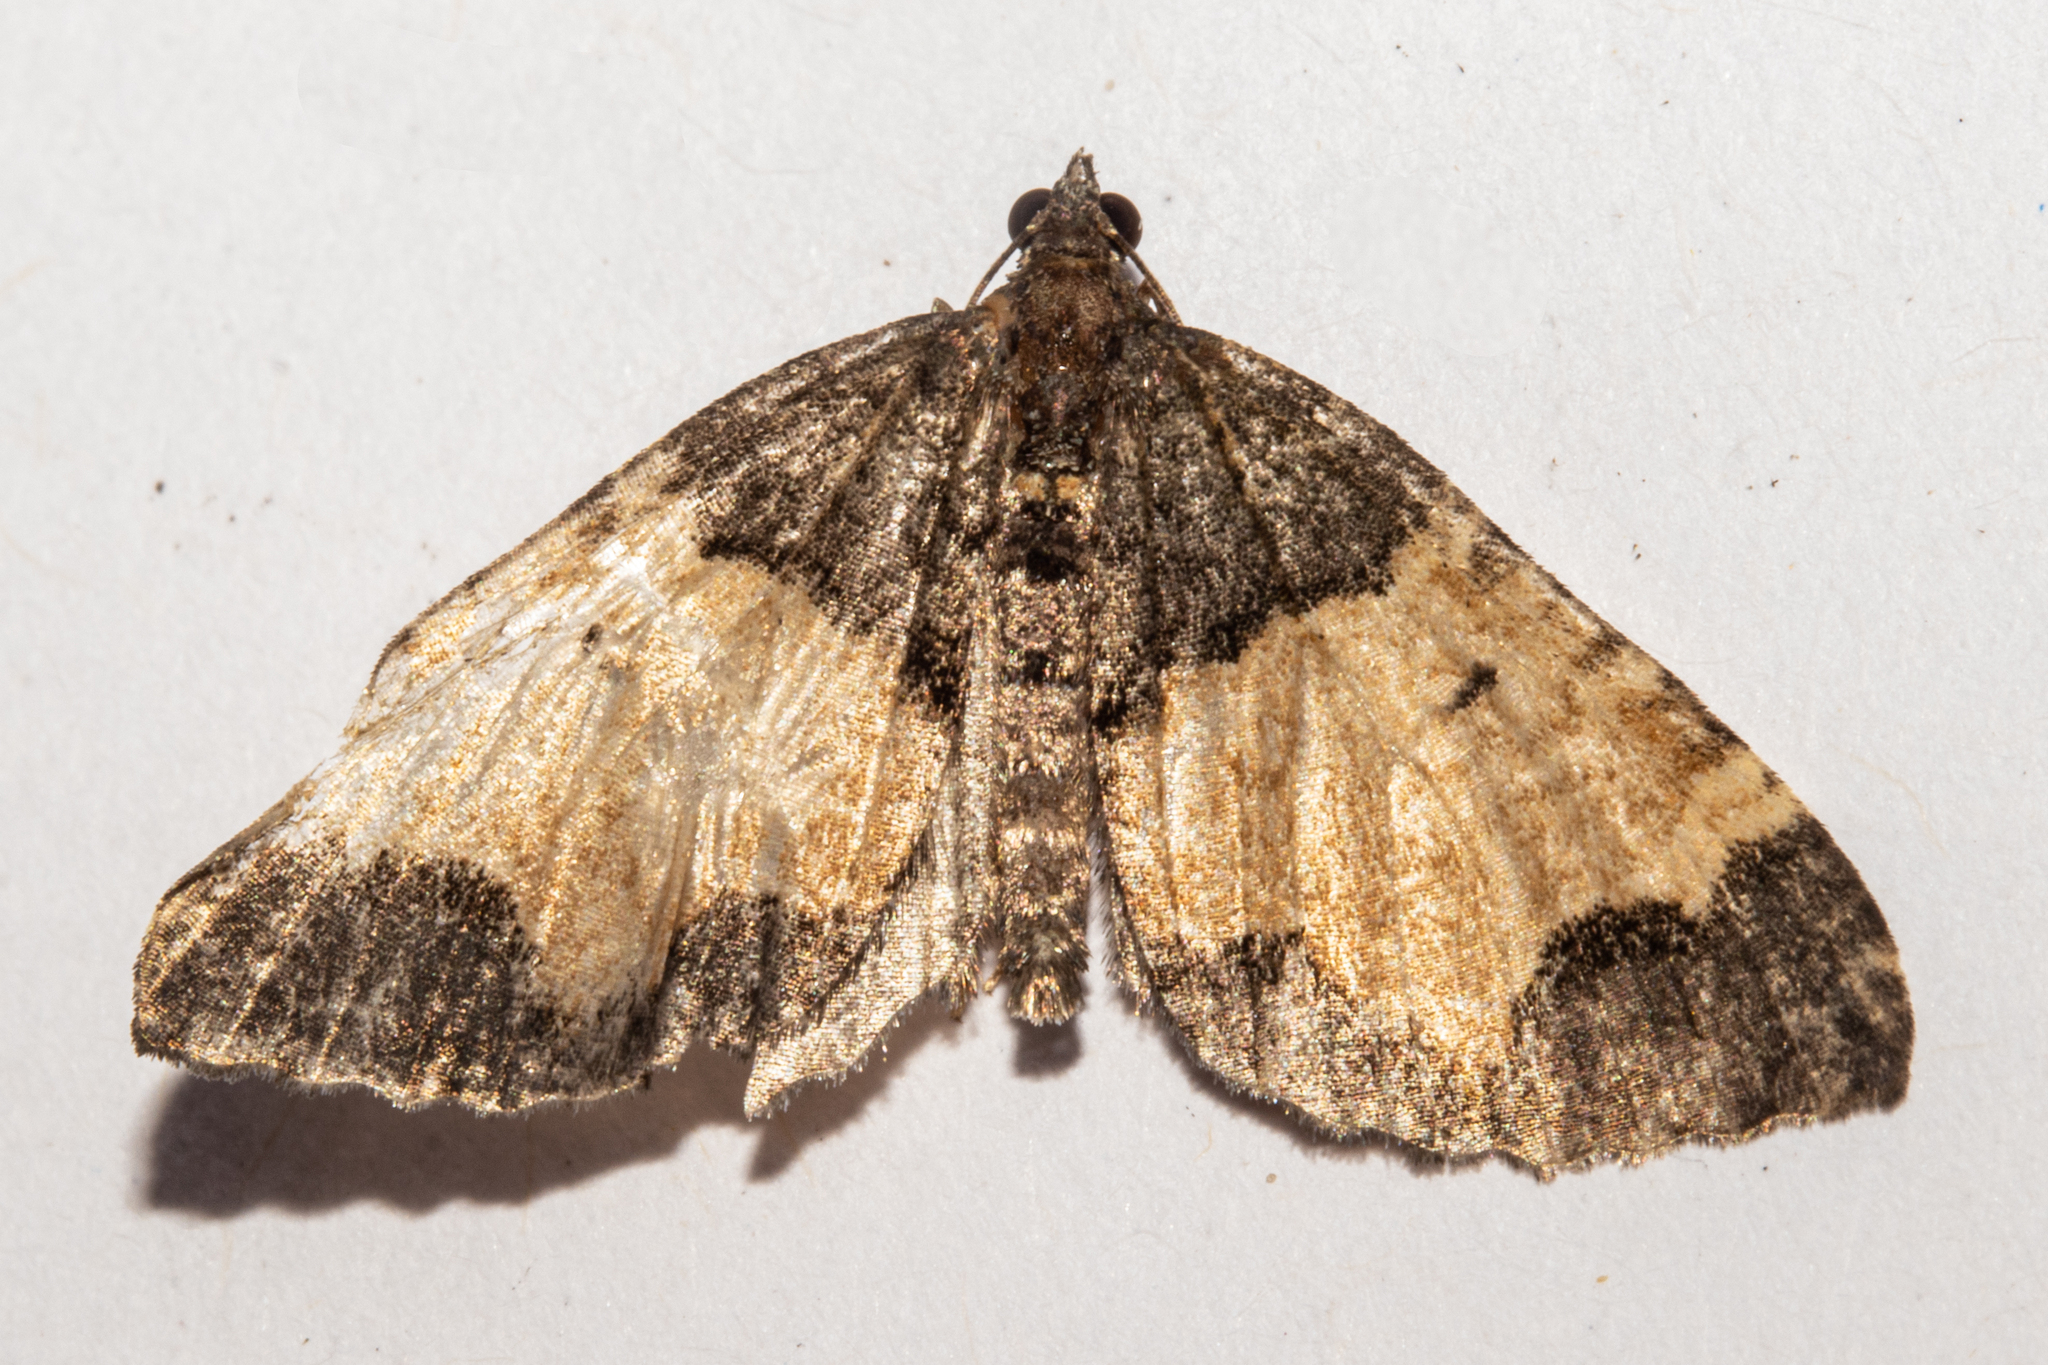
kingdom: Animalia
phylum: Arthropoda
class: Insecta
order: Lepidoptera
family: Geometridae
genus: Hydriomena
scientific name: Hydriomena arida
